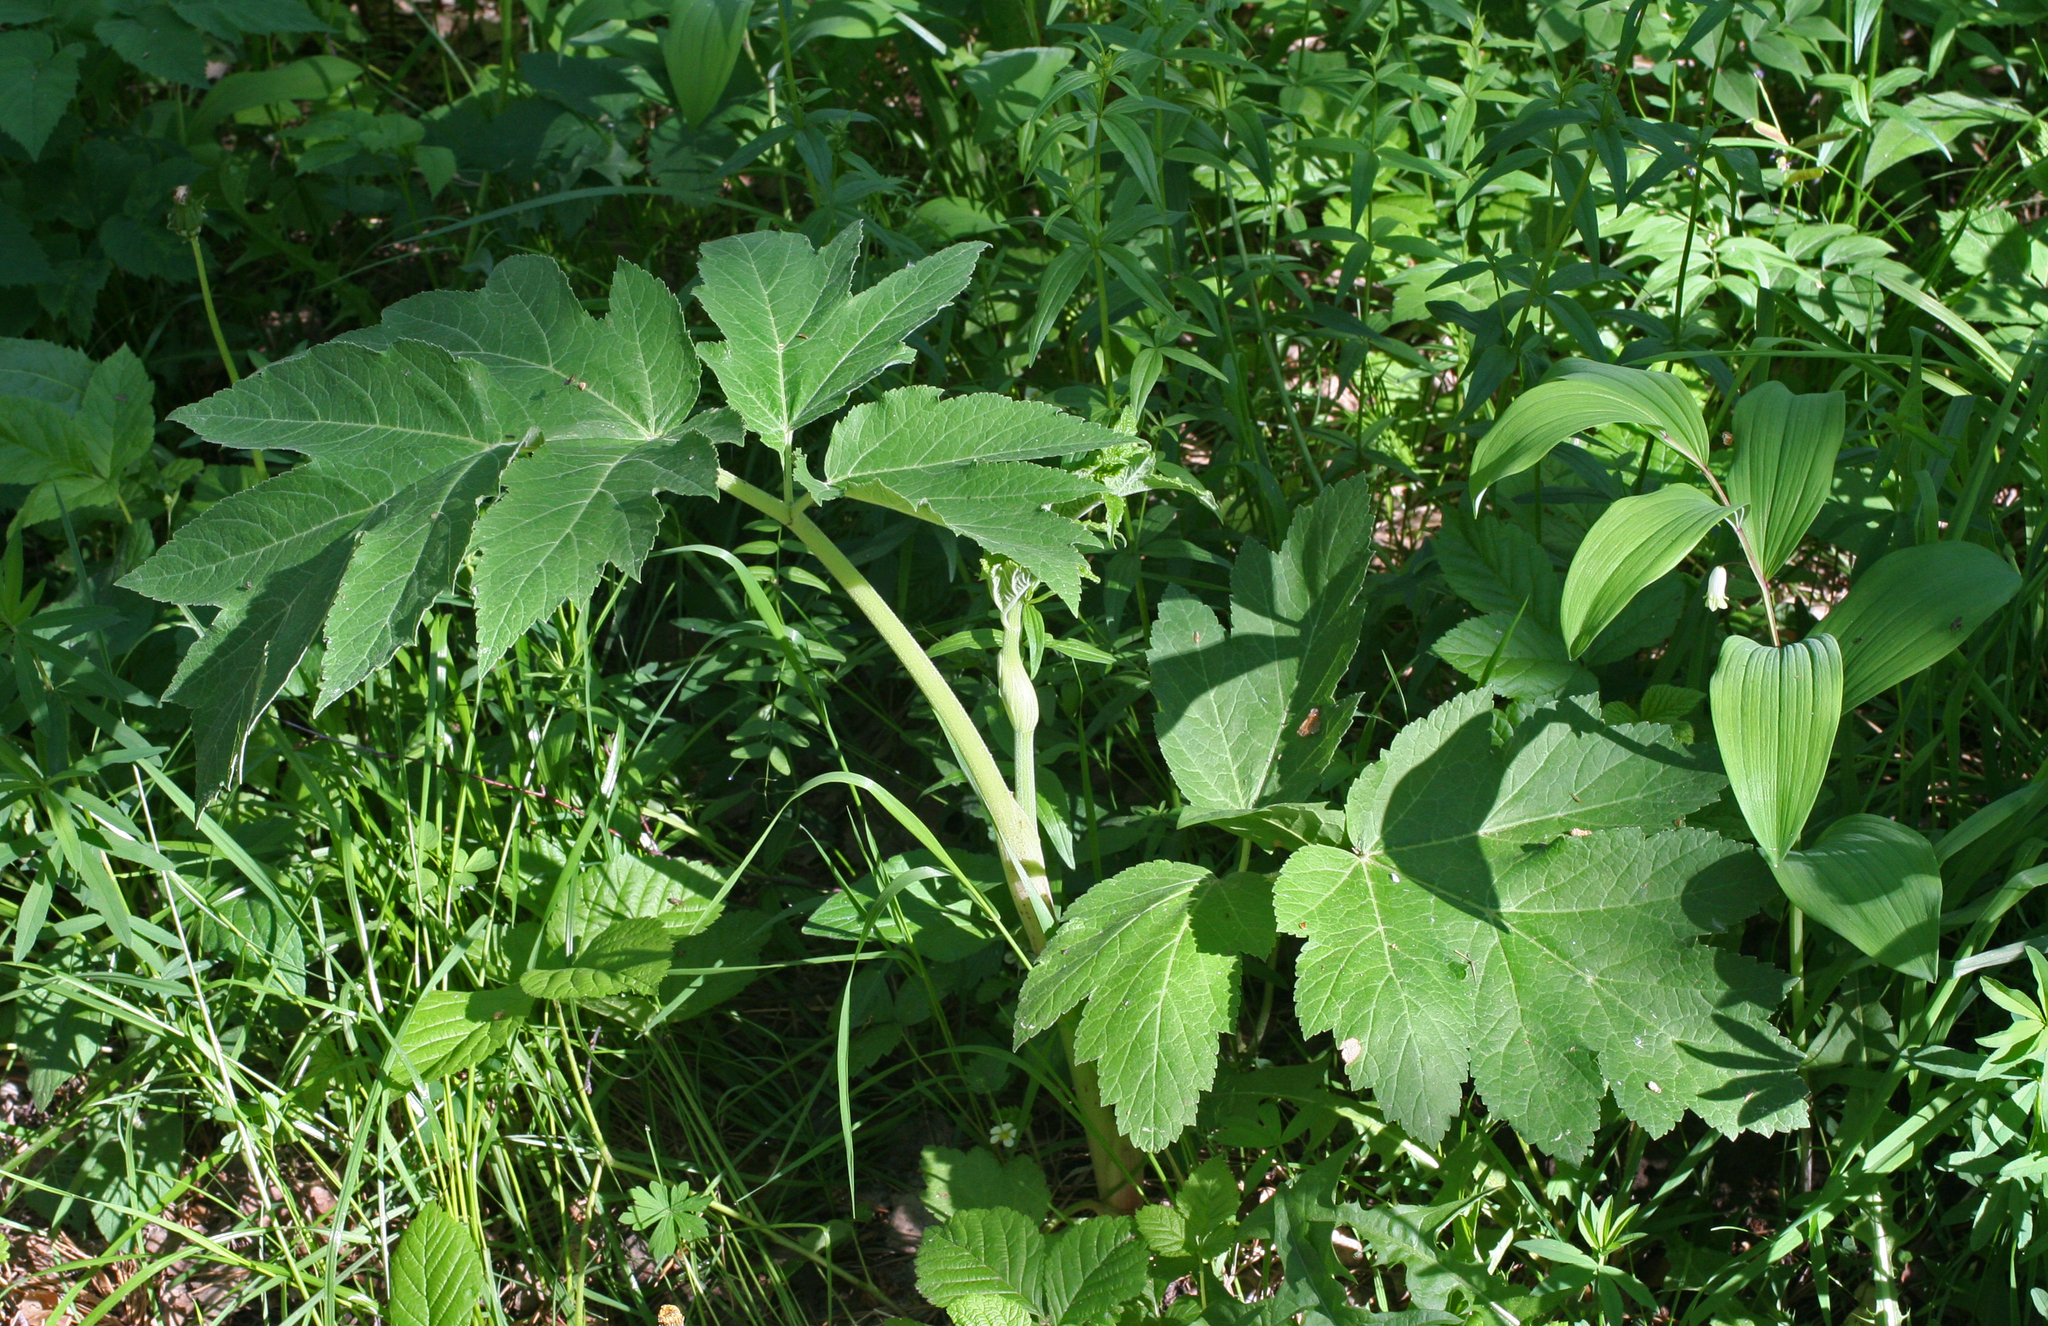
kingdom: Plantae
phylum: Tracheophyta
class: Magnoliopsida
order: Apiales
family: Apiaceae
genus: Heracleum
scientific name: Heracleum dissectum
